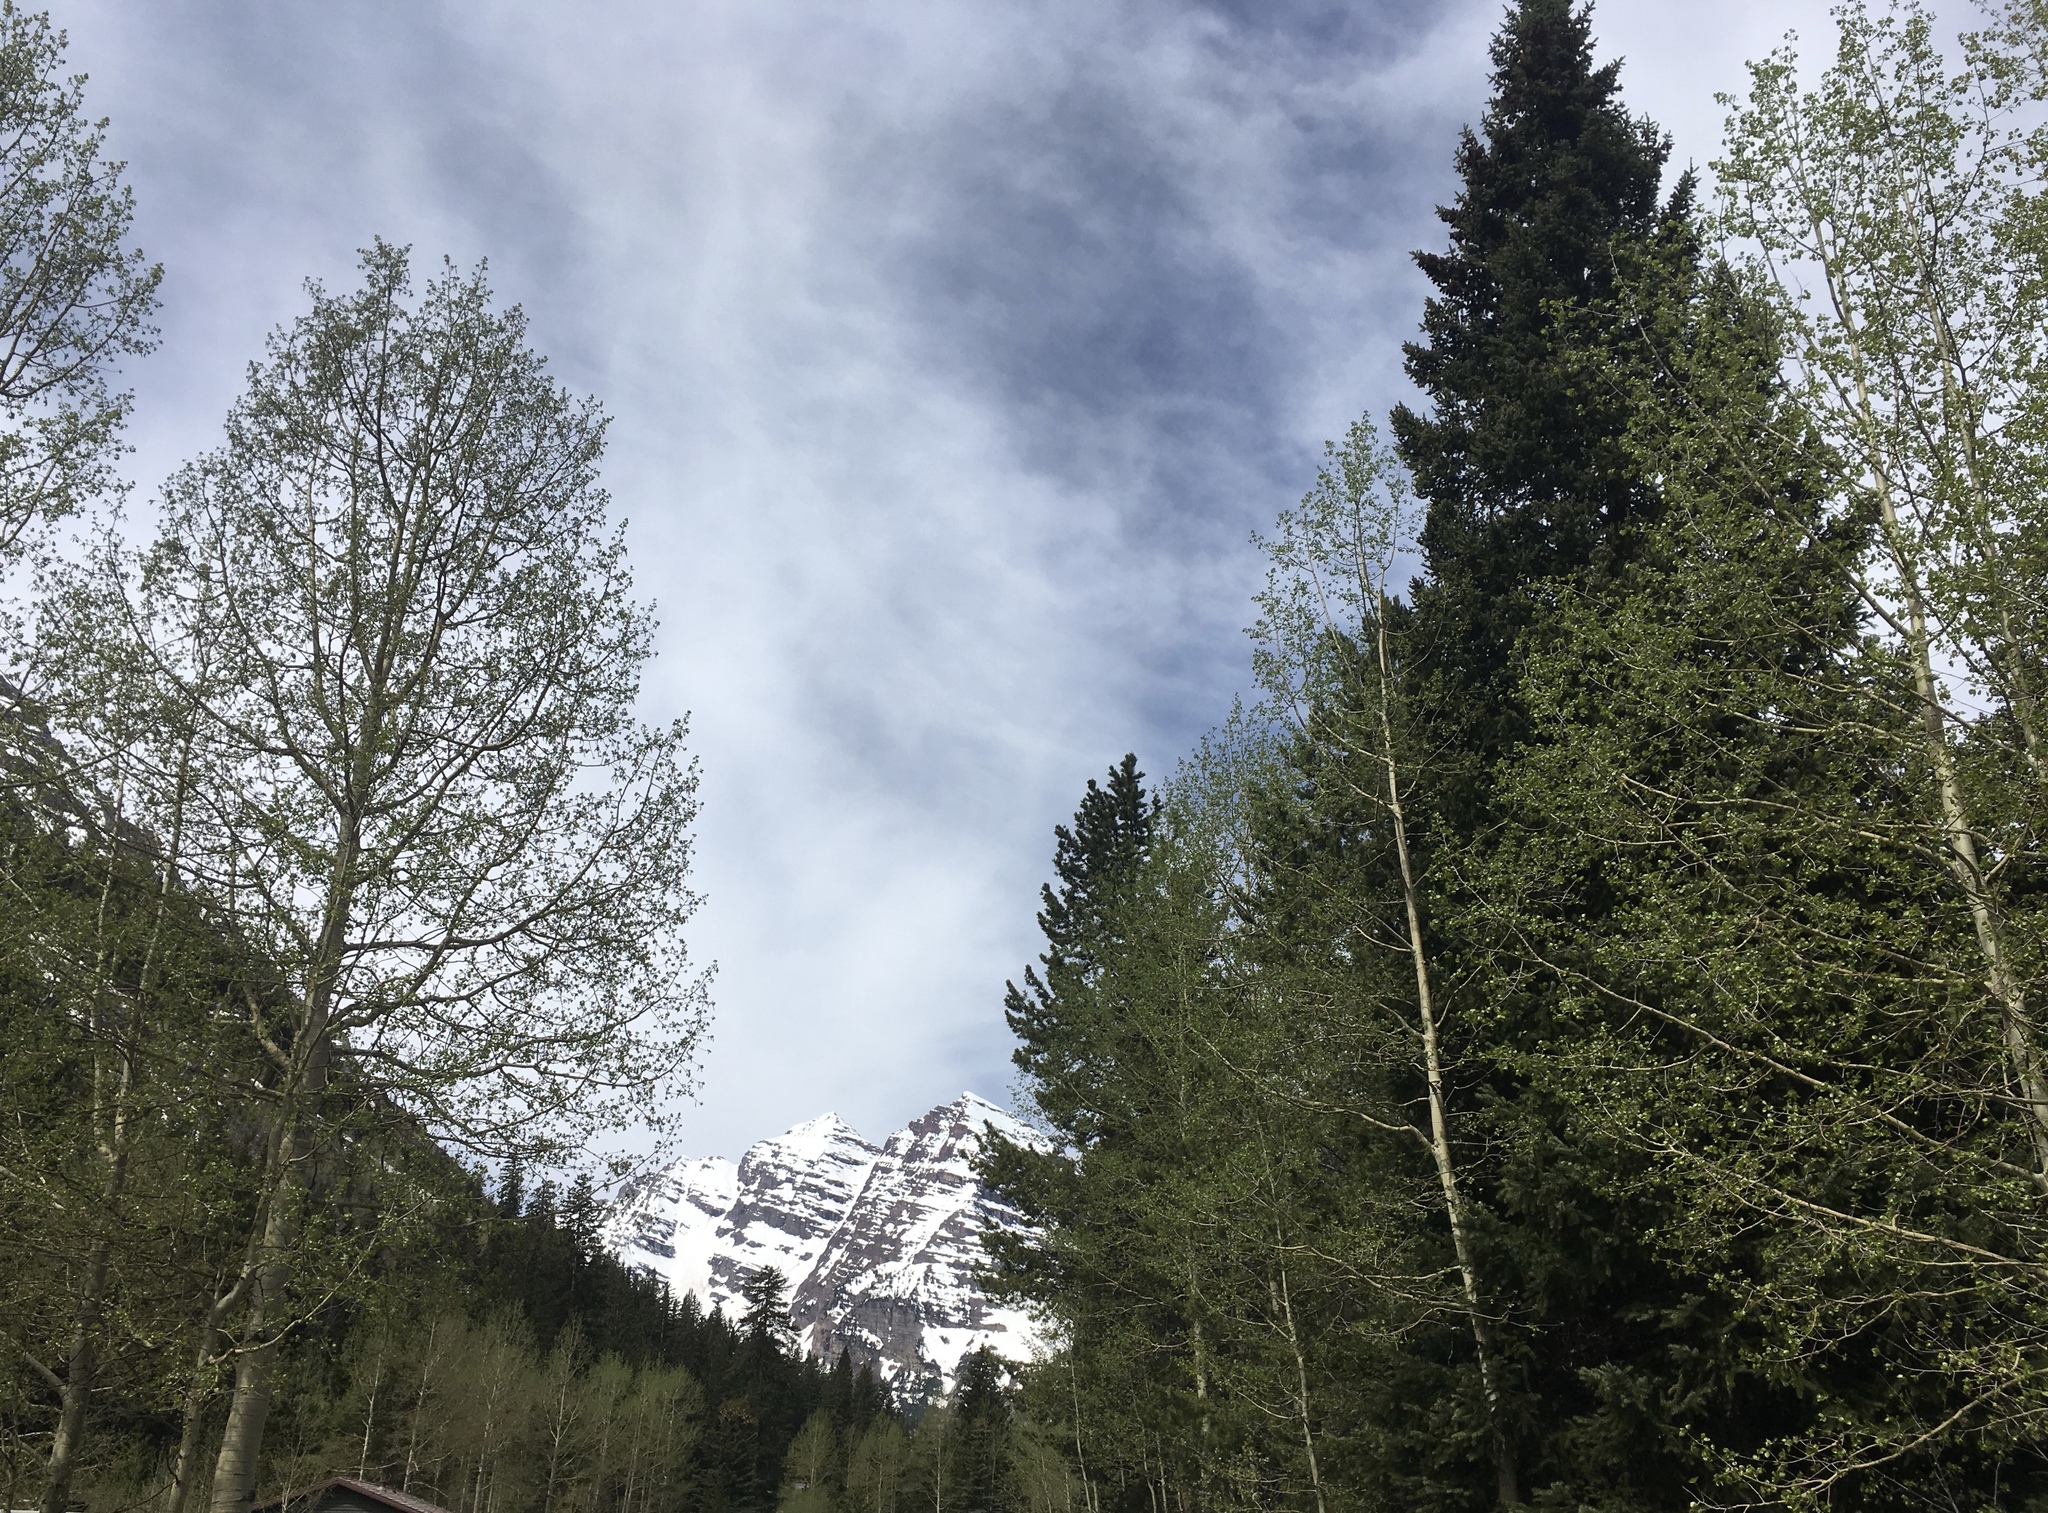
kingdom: Plantae
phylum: Tracheophyta
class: Magnoliopsida
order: Malpighiales
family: Salicaceae
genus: Populus
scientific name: Populus tremuloides
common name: Quaking aspen
